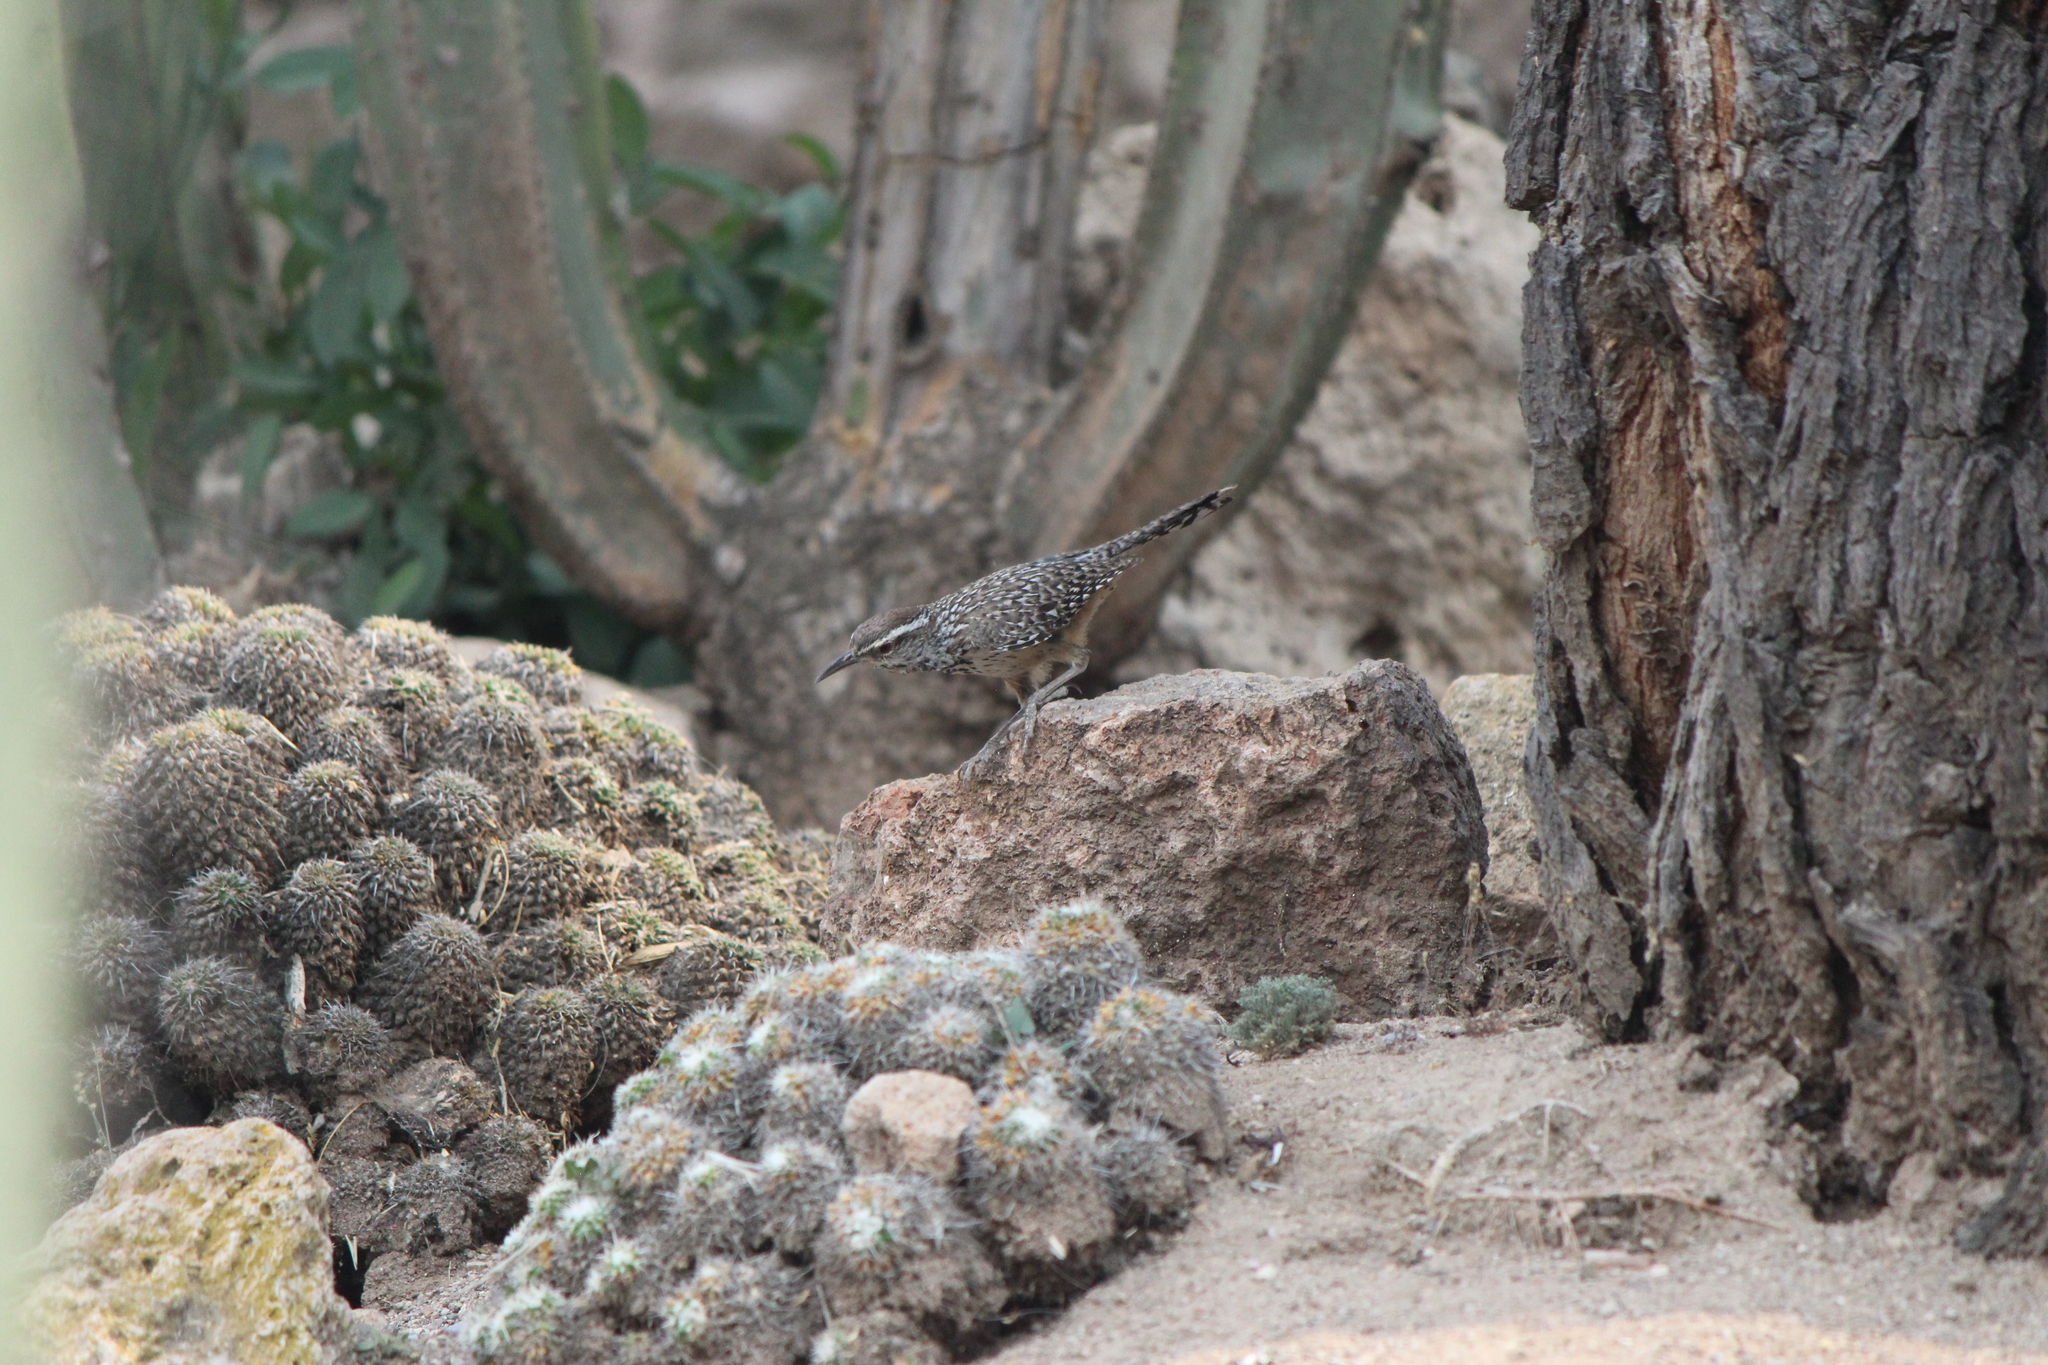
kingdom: Animalia
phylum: Chordata
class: Aves
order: Passeriformes
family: Troglodytidae
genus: Campylorhynchus
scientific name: Campylorhynchus brunneicapillus
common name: Cactus wren
